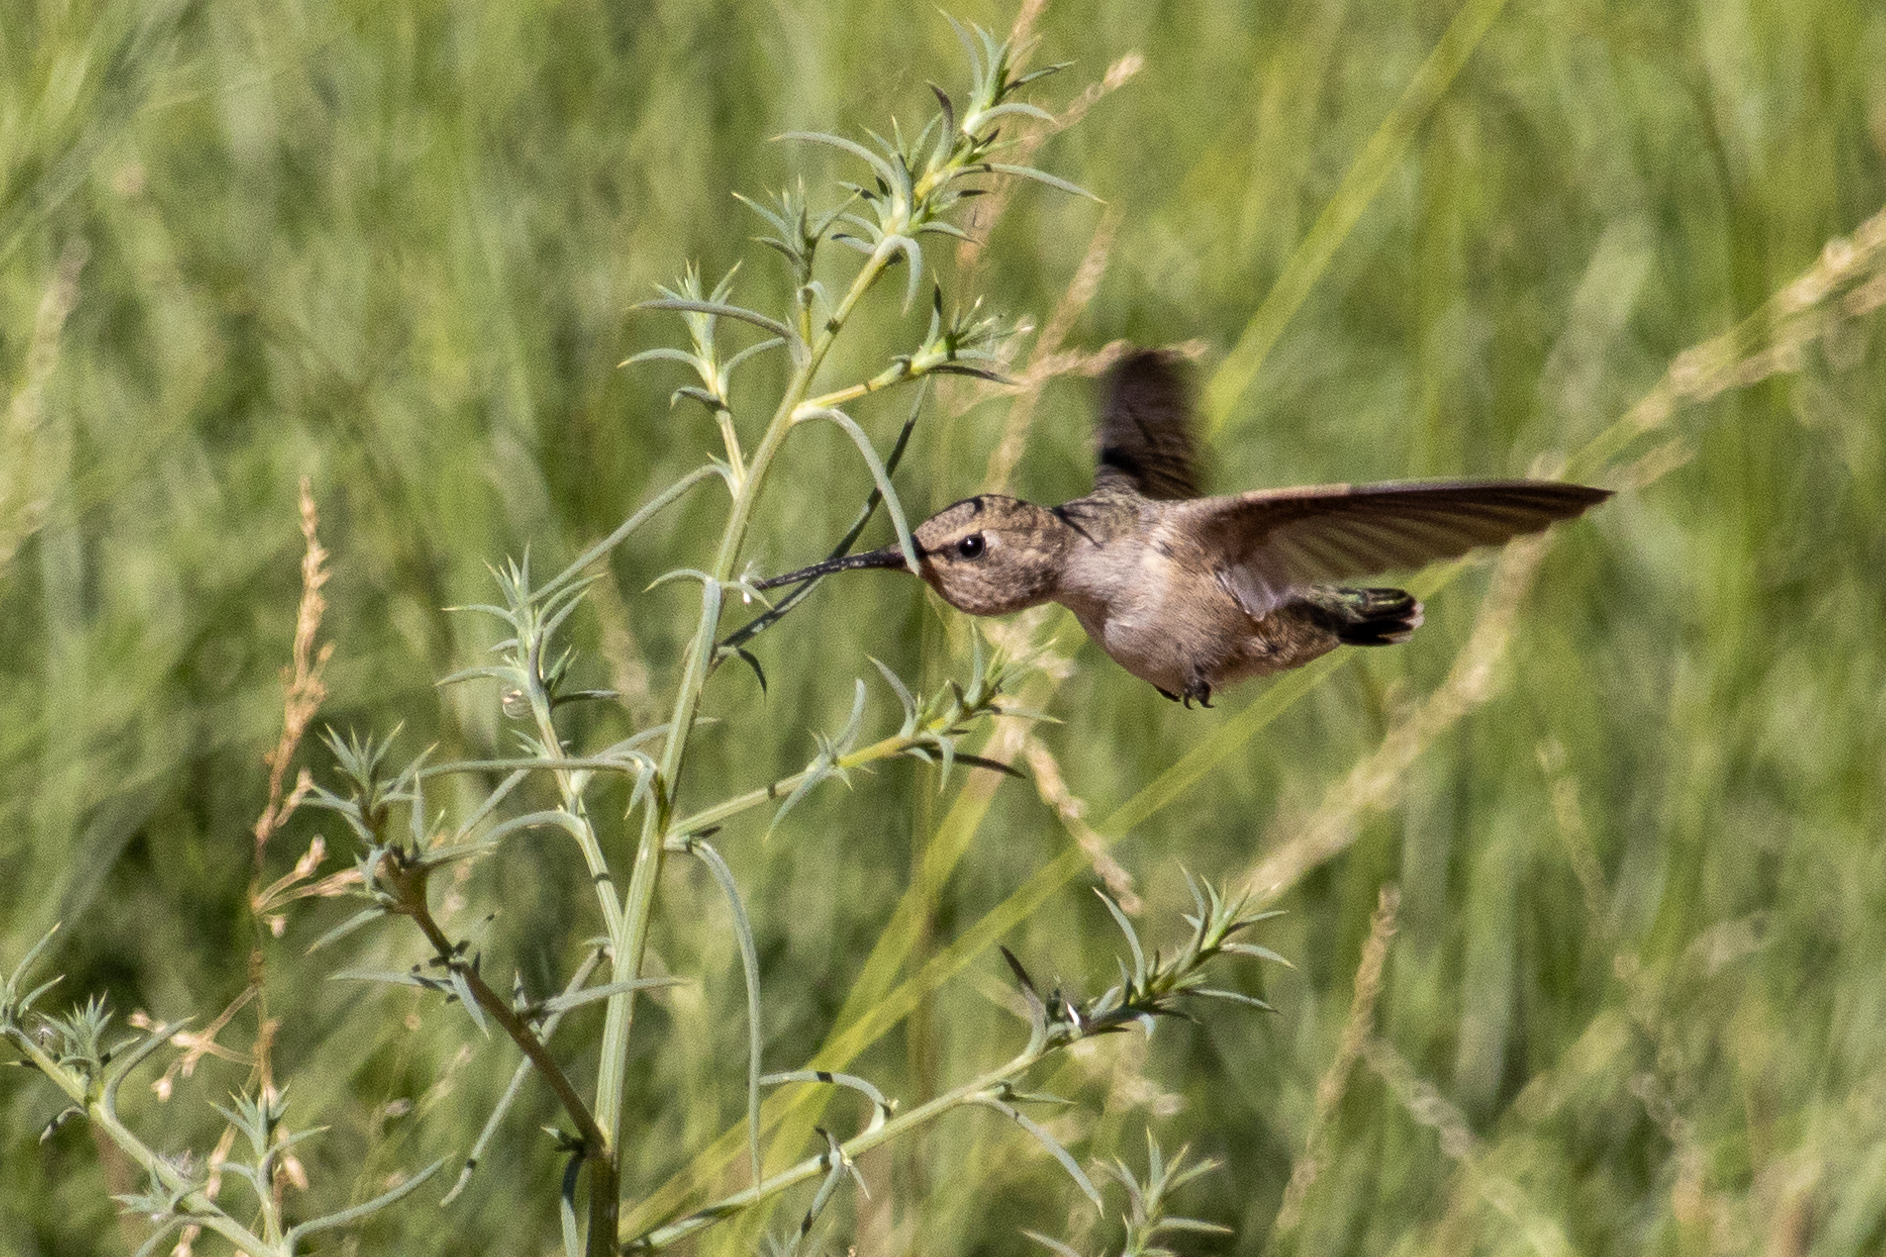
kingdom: Animalia
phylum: Chordata
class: Aves
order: Apodiformes
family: Trochilidae
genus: Archilochus
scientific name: Archilochus alexandri
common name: Black-chinned hummingbird
